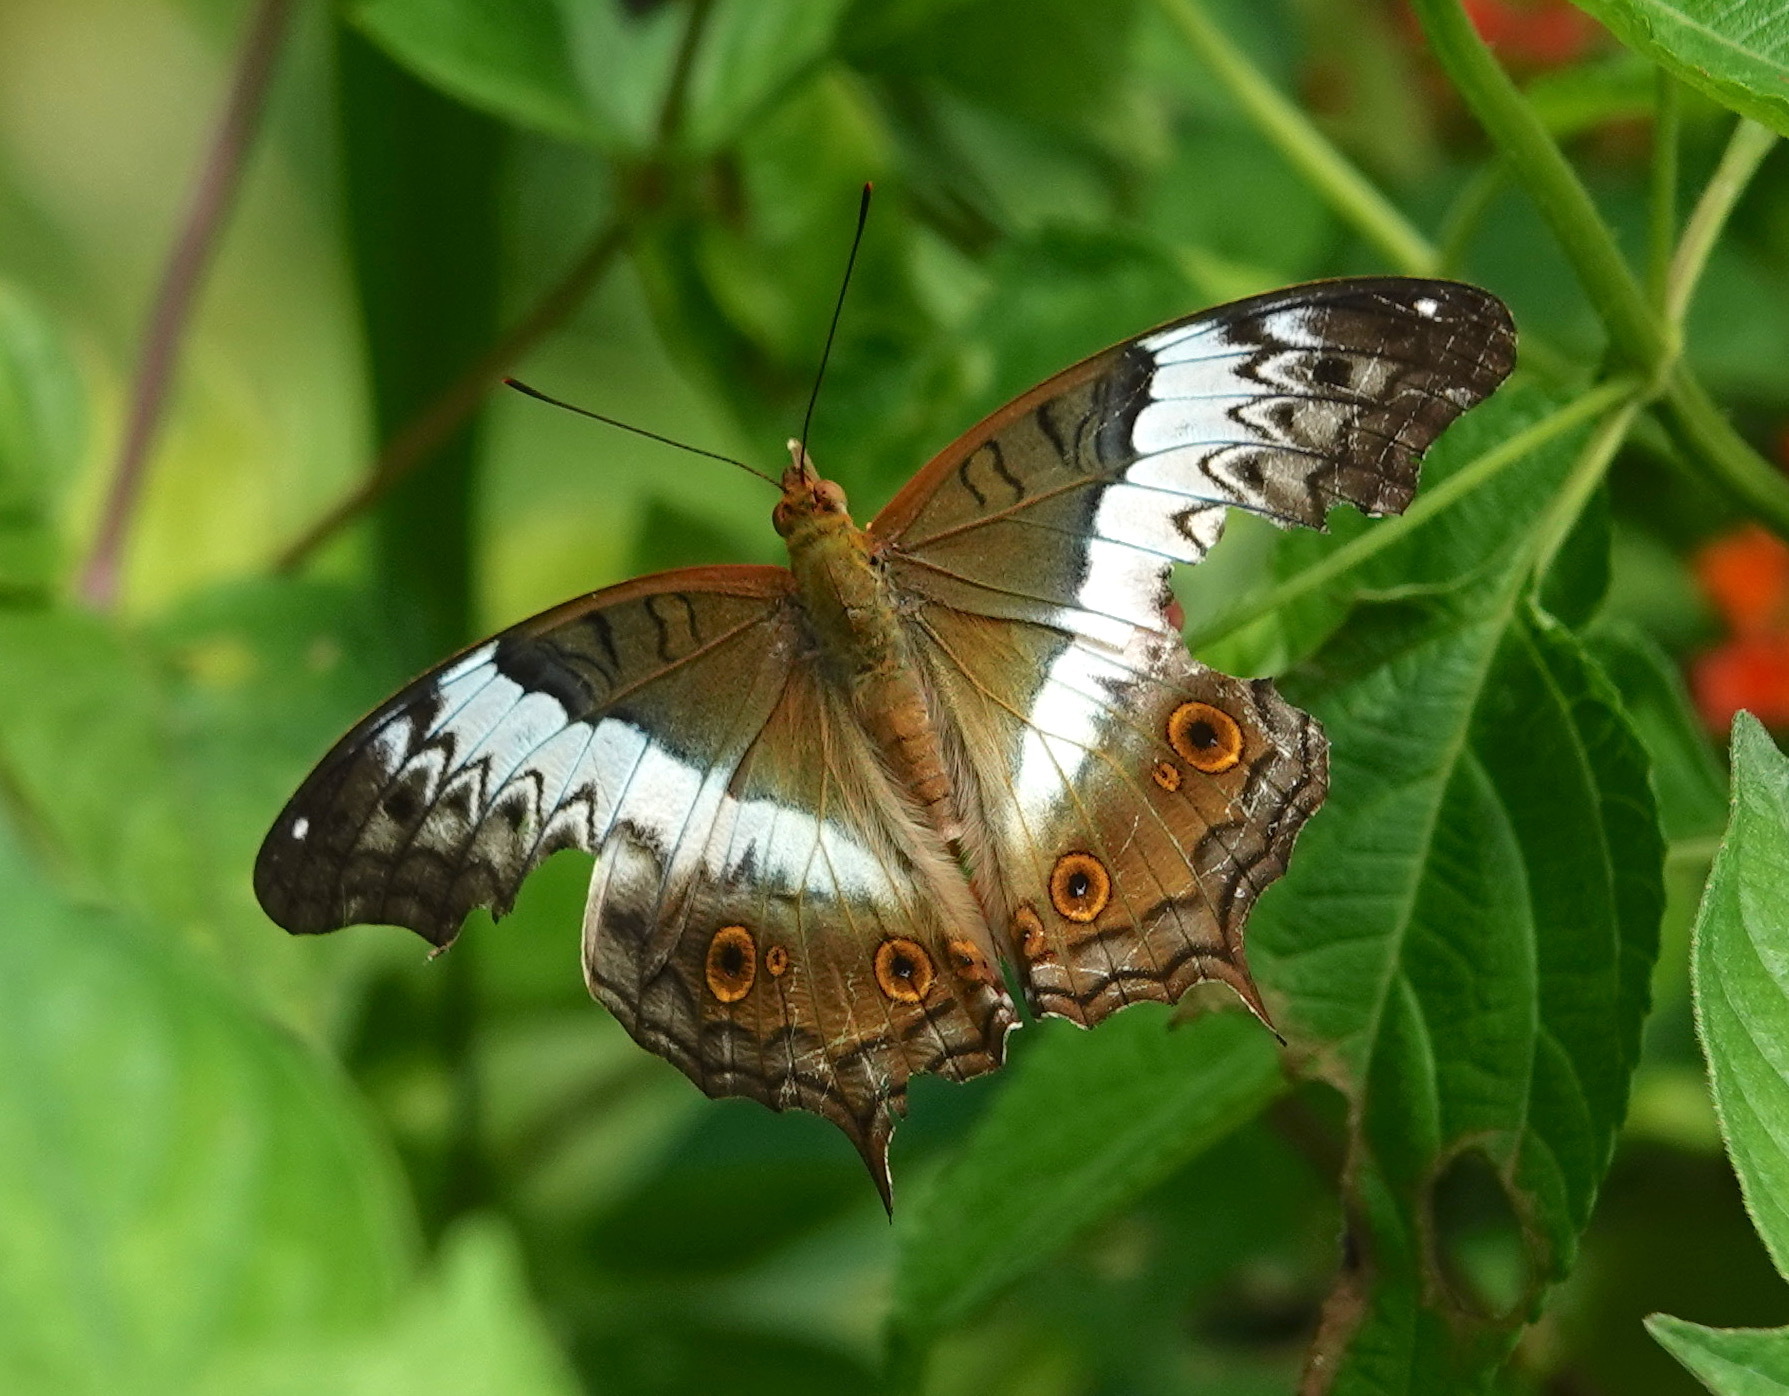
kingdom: Animalia
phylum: Arthropoda
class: Insecta
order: Lepidoptera
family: Nymphalidae
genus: Vindula
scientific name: Vindula deione
